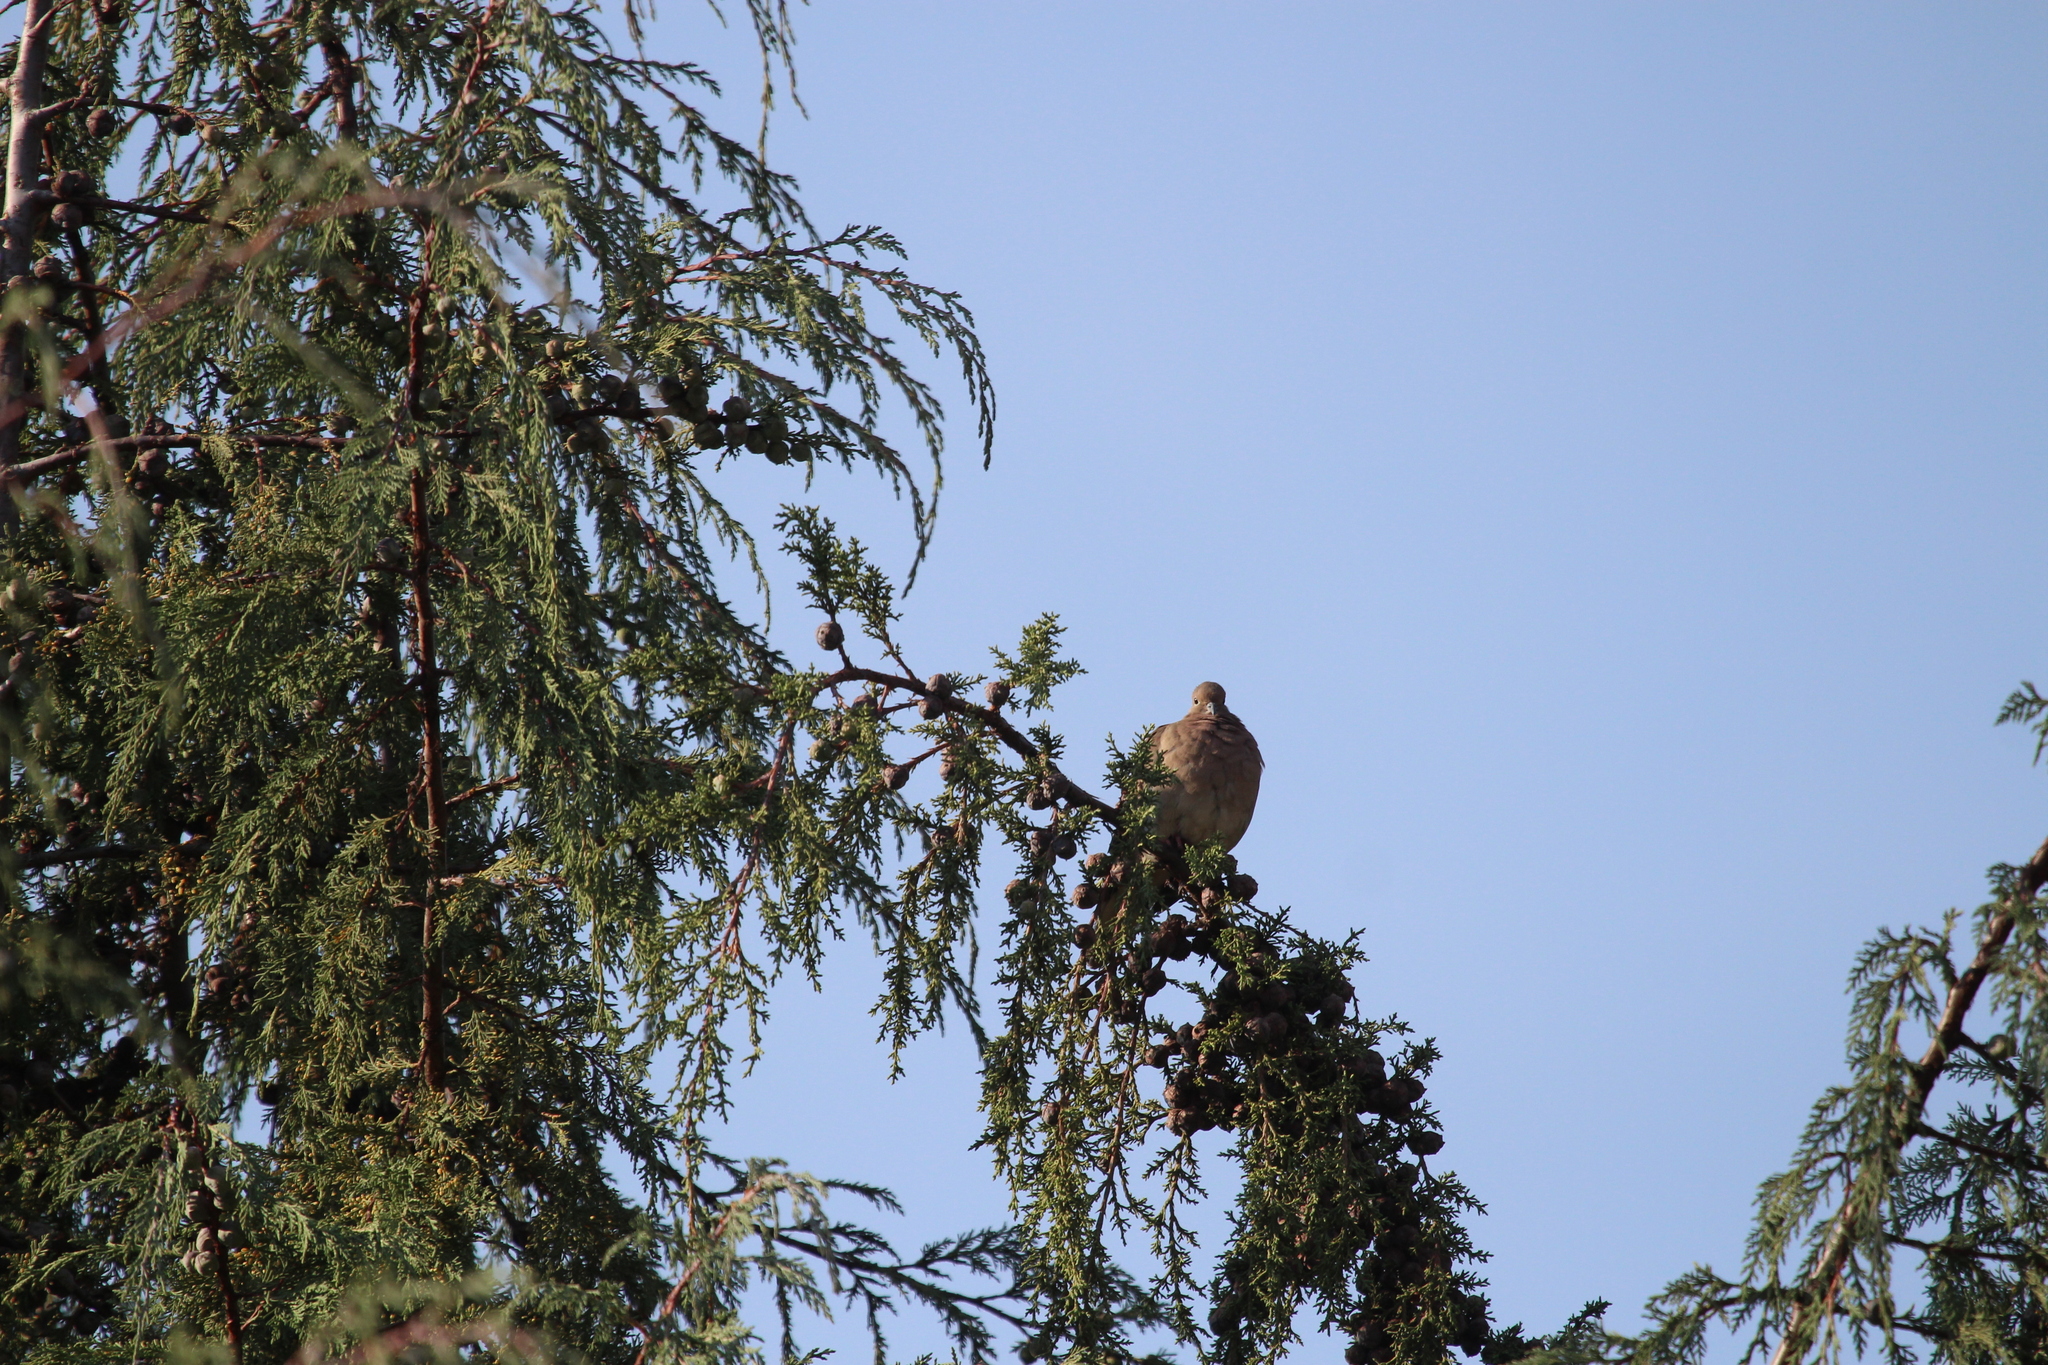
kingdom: Animalia
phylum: Chordata
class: Aves
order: Columbiformes
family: Columbidae
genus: Zenaida
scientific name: Zenaida auriculata
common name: Eared dove
